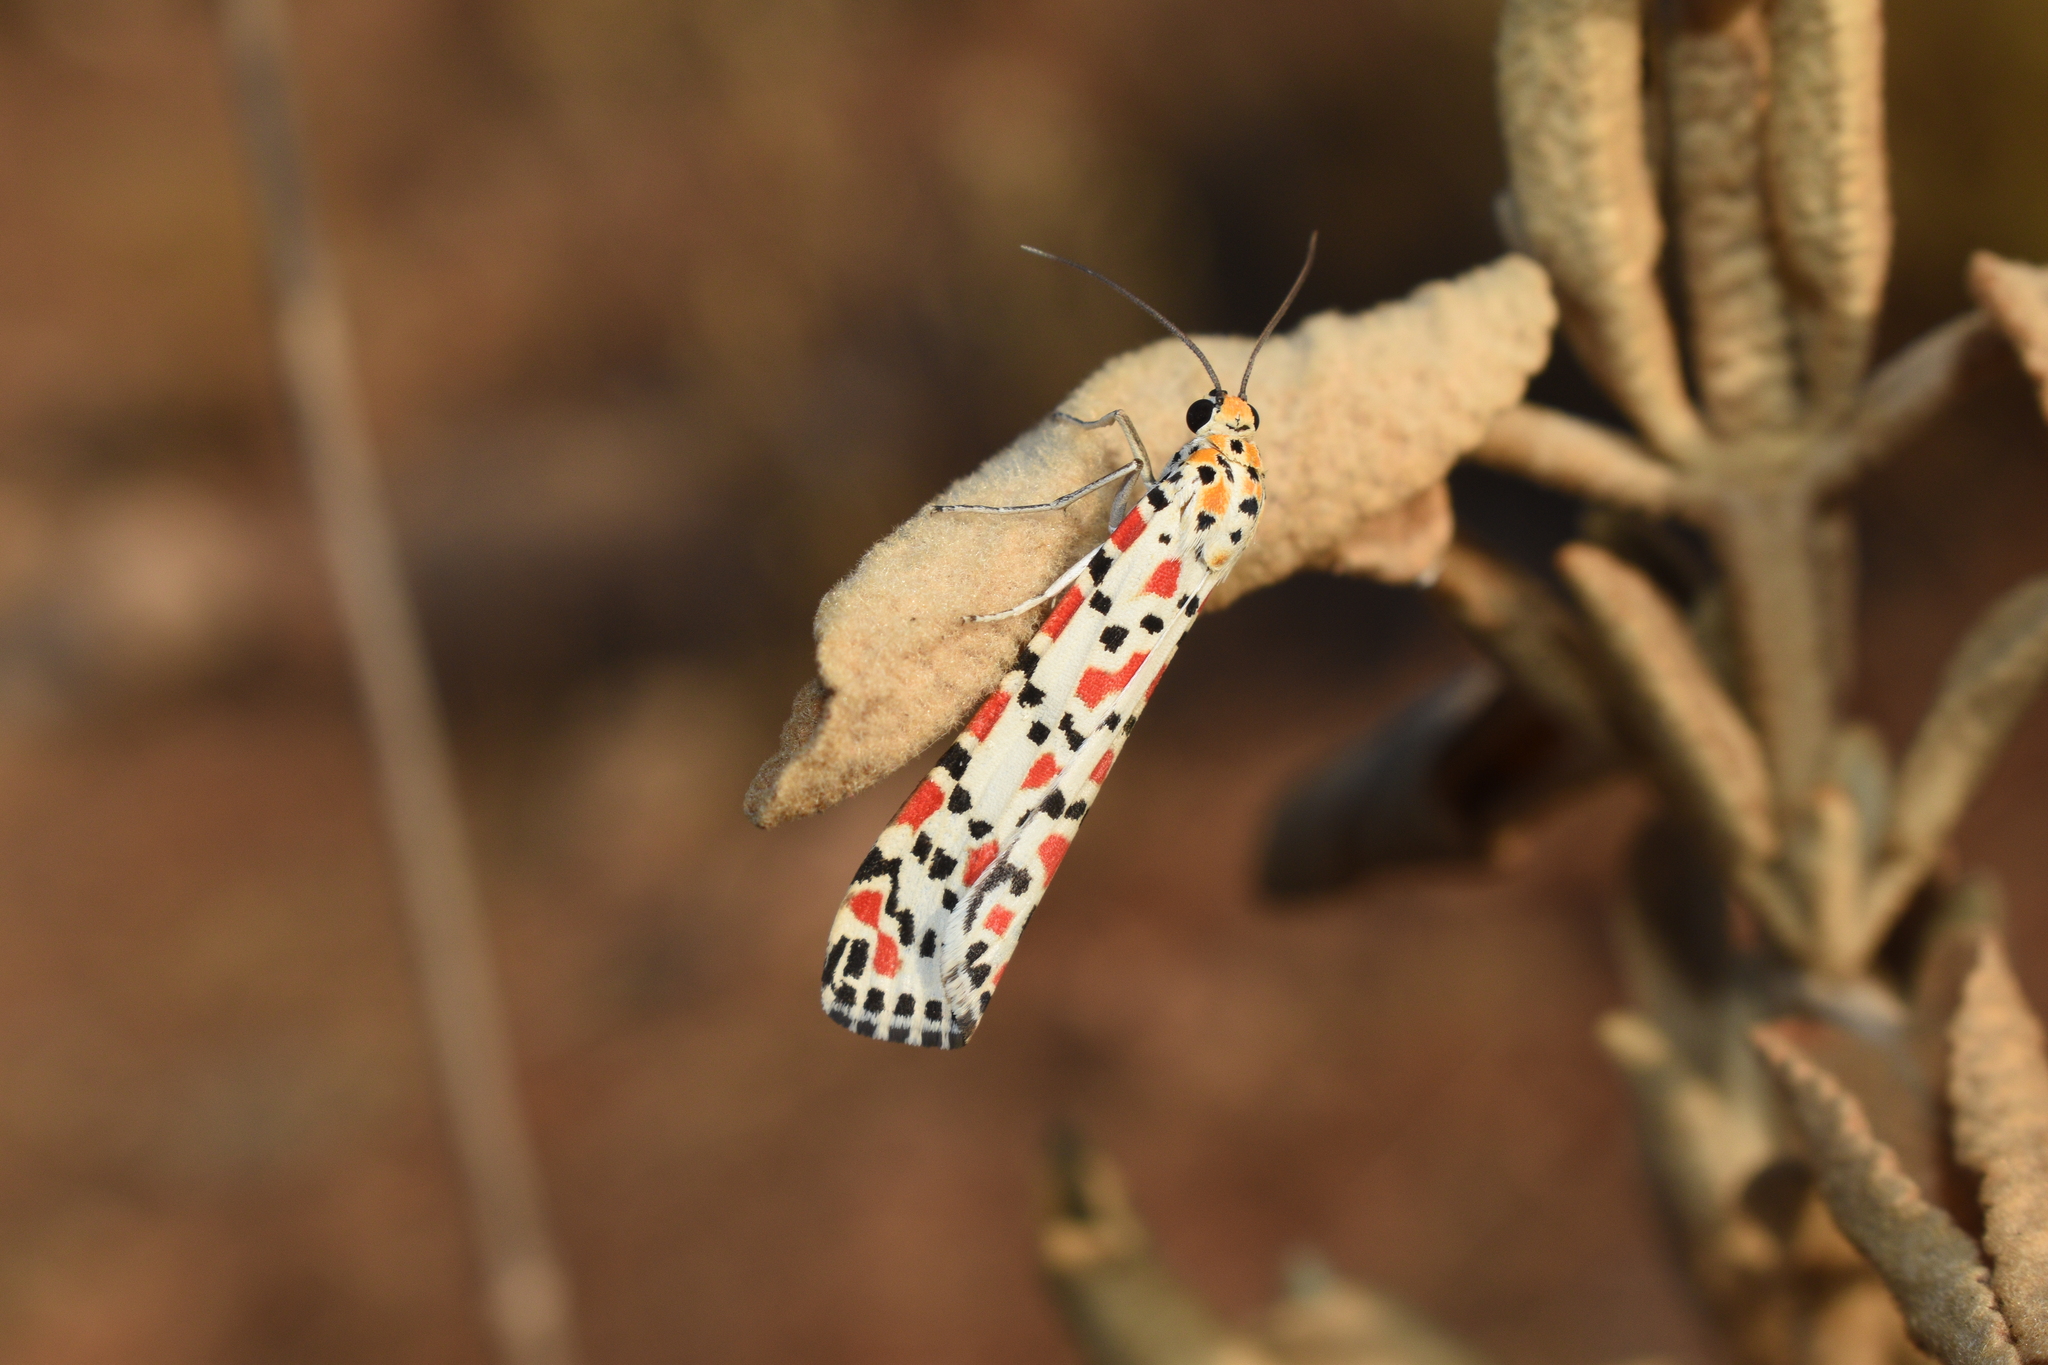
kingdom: Animalia
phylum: Arthropoda
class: Insecta
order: Lepidoptera
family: Erebidae
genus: Utetheisa
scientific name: Utetheisa pulchella
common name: Crimson speckled
